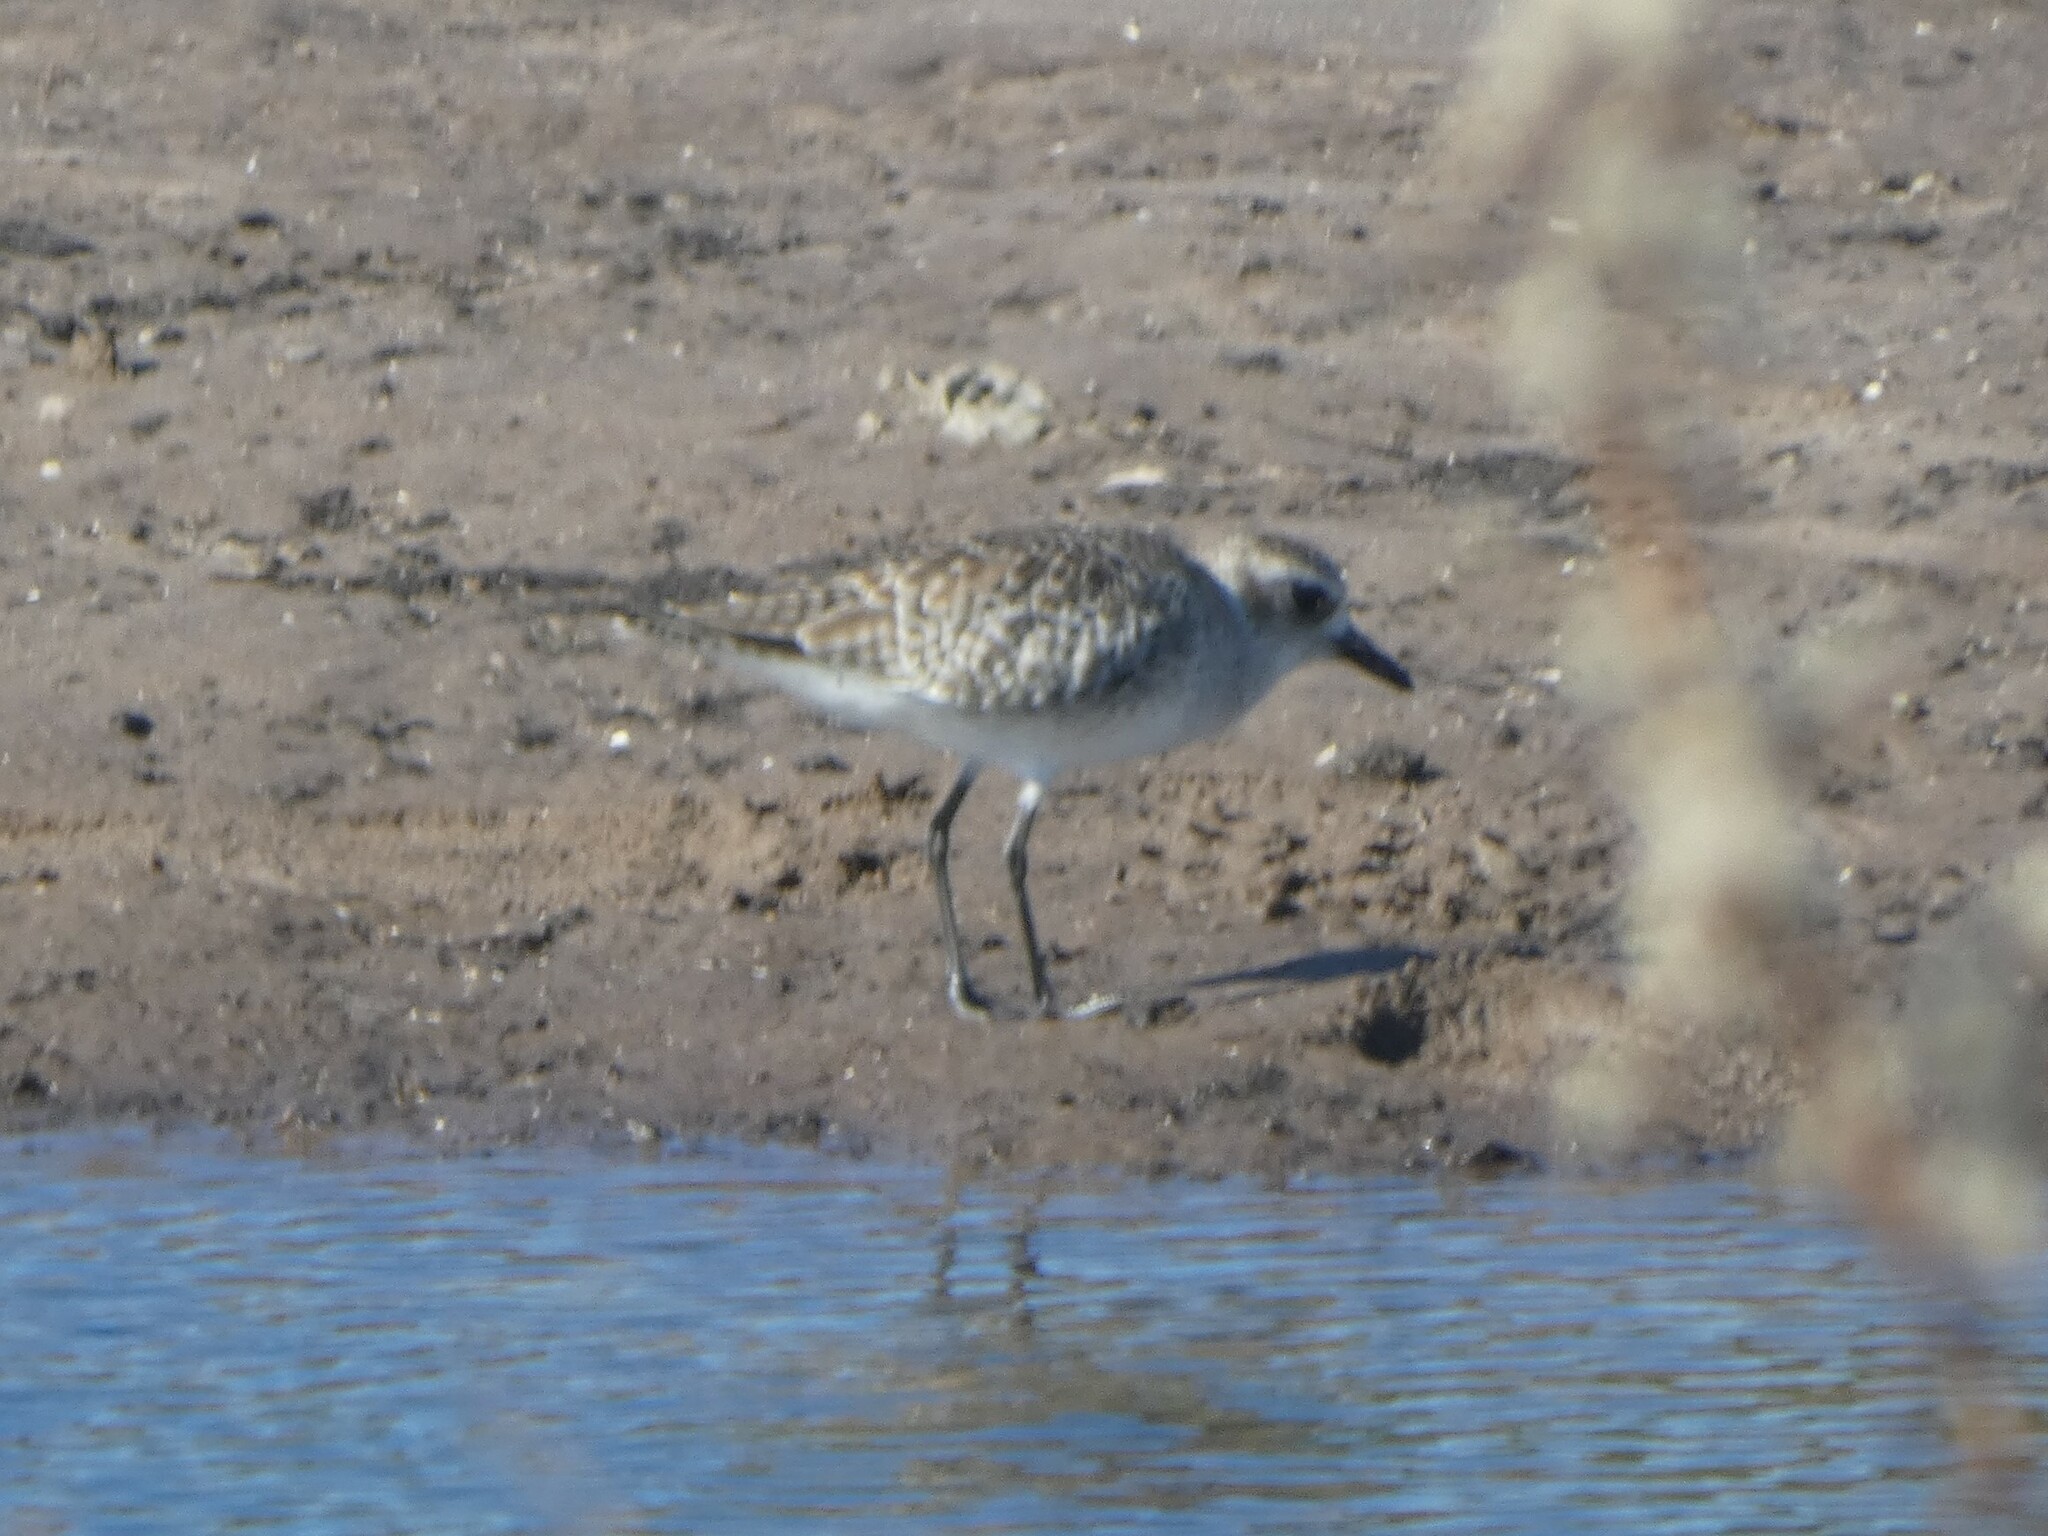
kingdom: Animalia
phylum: Chordata
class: Aves
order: Charadriiformes
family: Charadriidae
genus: Pluvialis
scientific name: Pluvialis squatarola
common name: Grey plover
